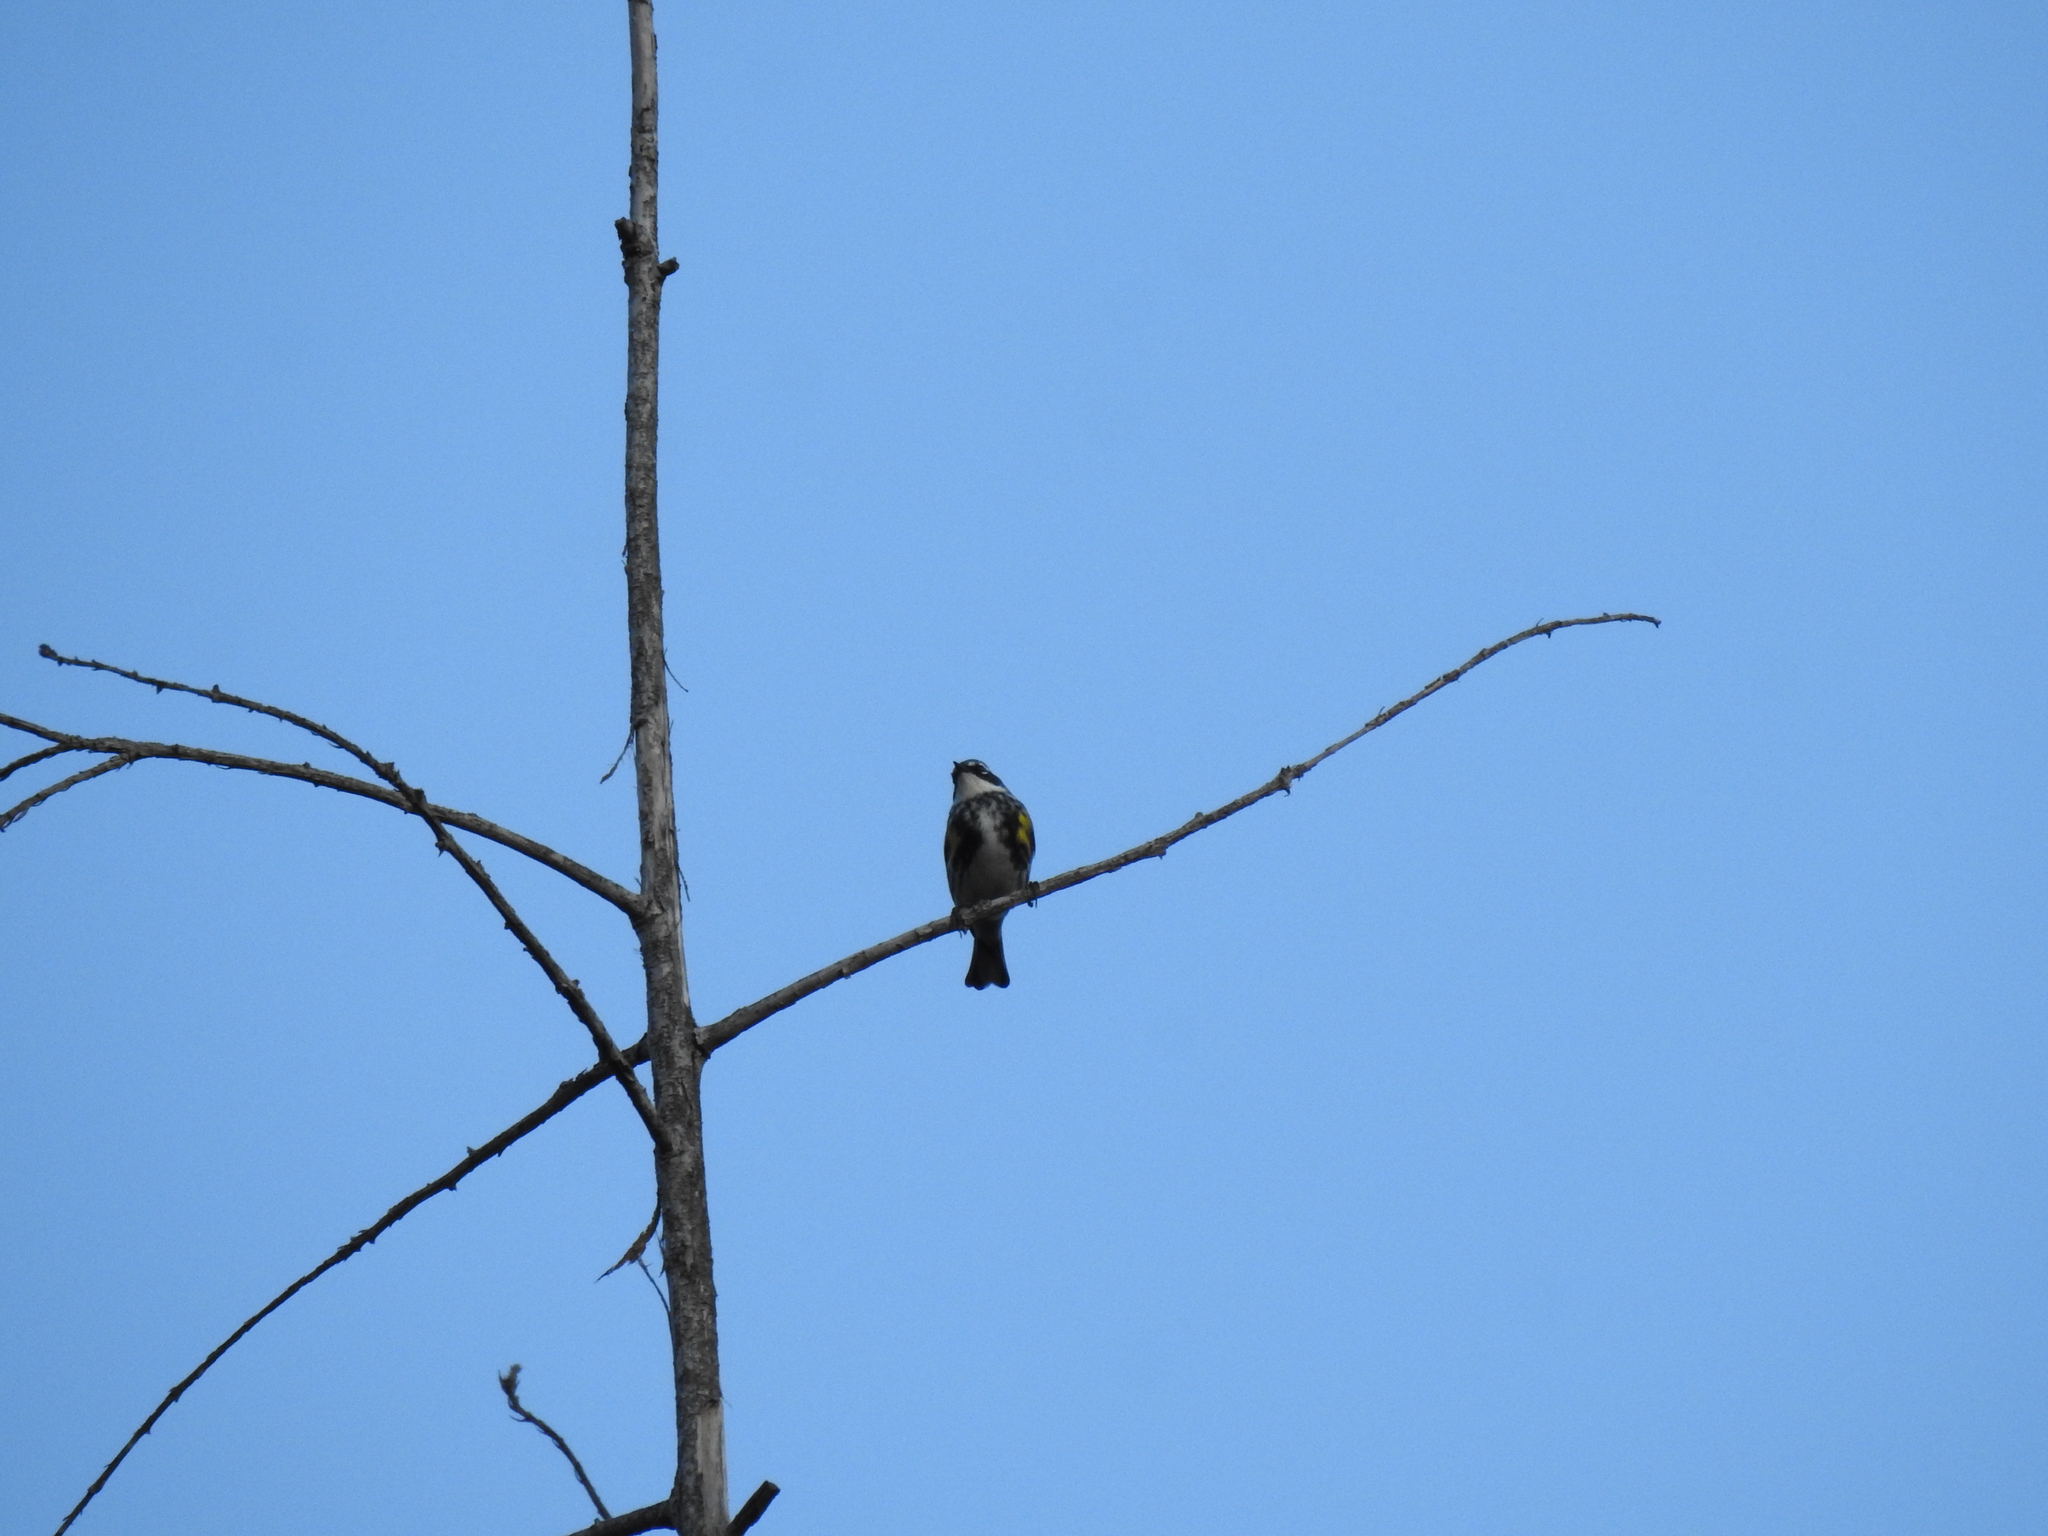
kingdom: Animalia
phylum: Chordata
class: Aves
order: Passeriformes
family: Parulidae
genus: Setophaga
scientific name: Setophaga coronata
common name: Myrtle warbler
